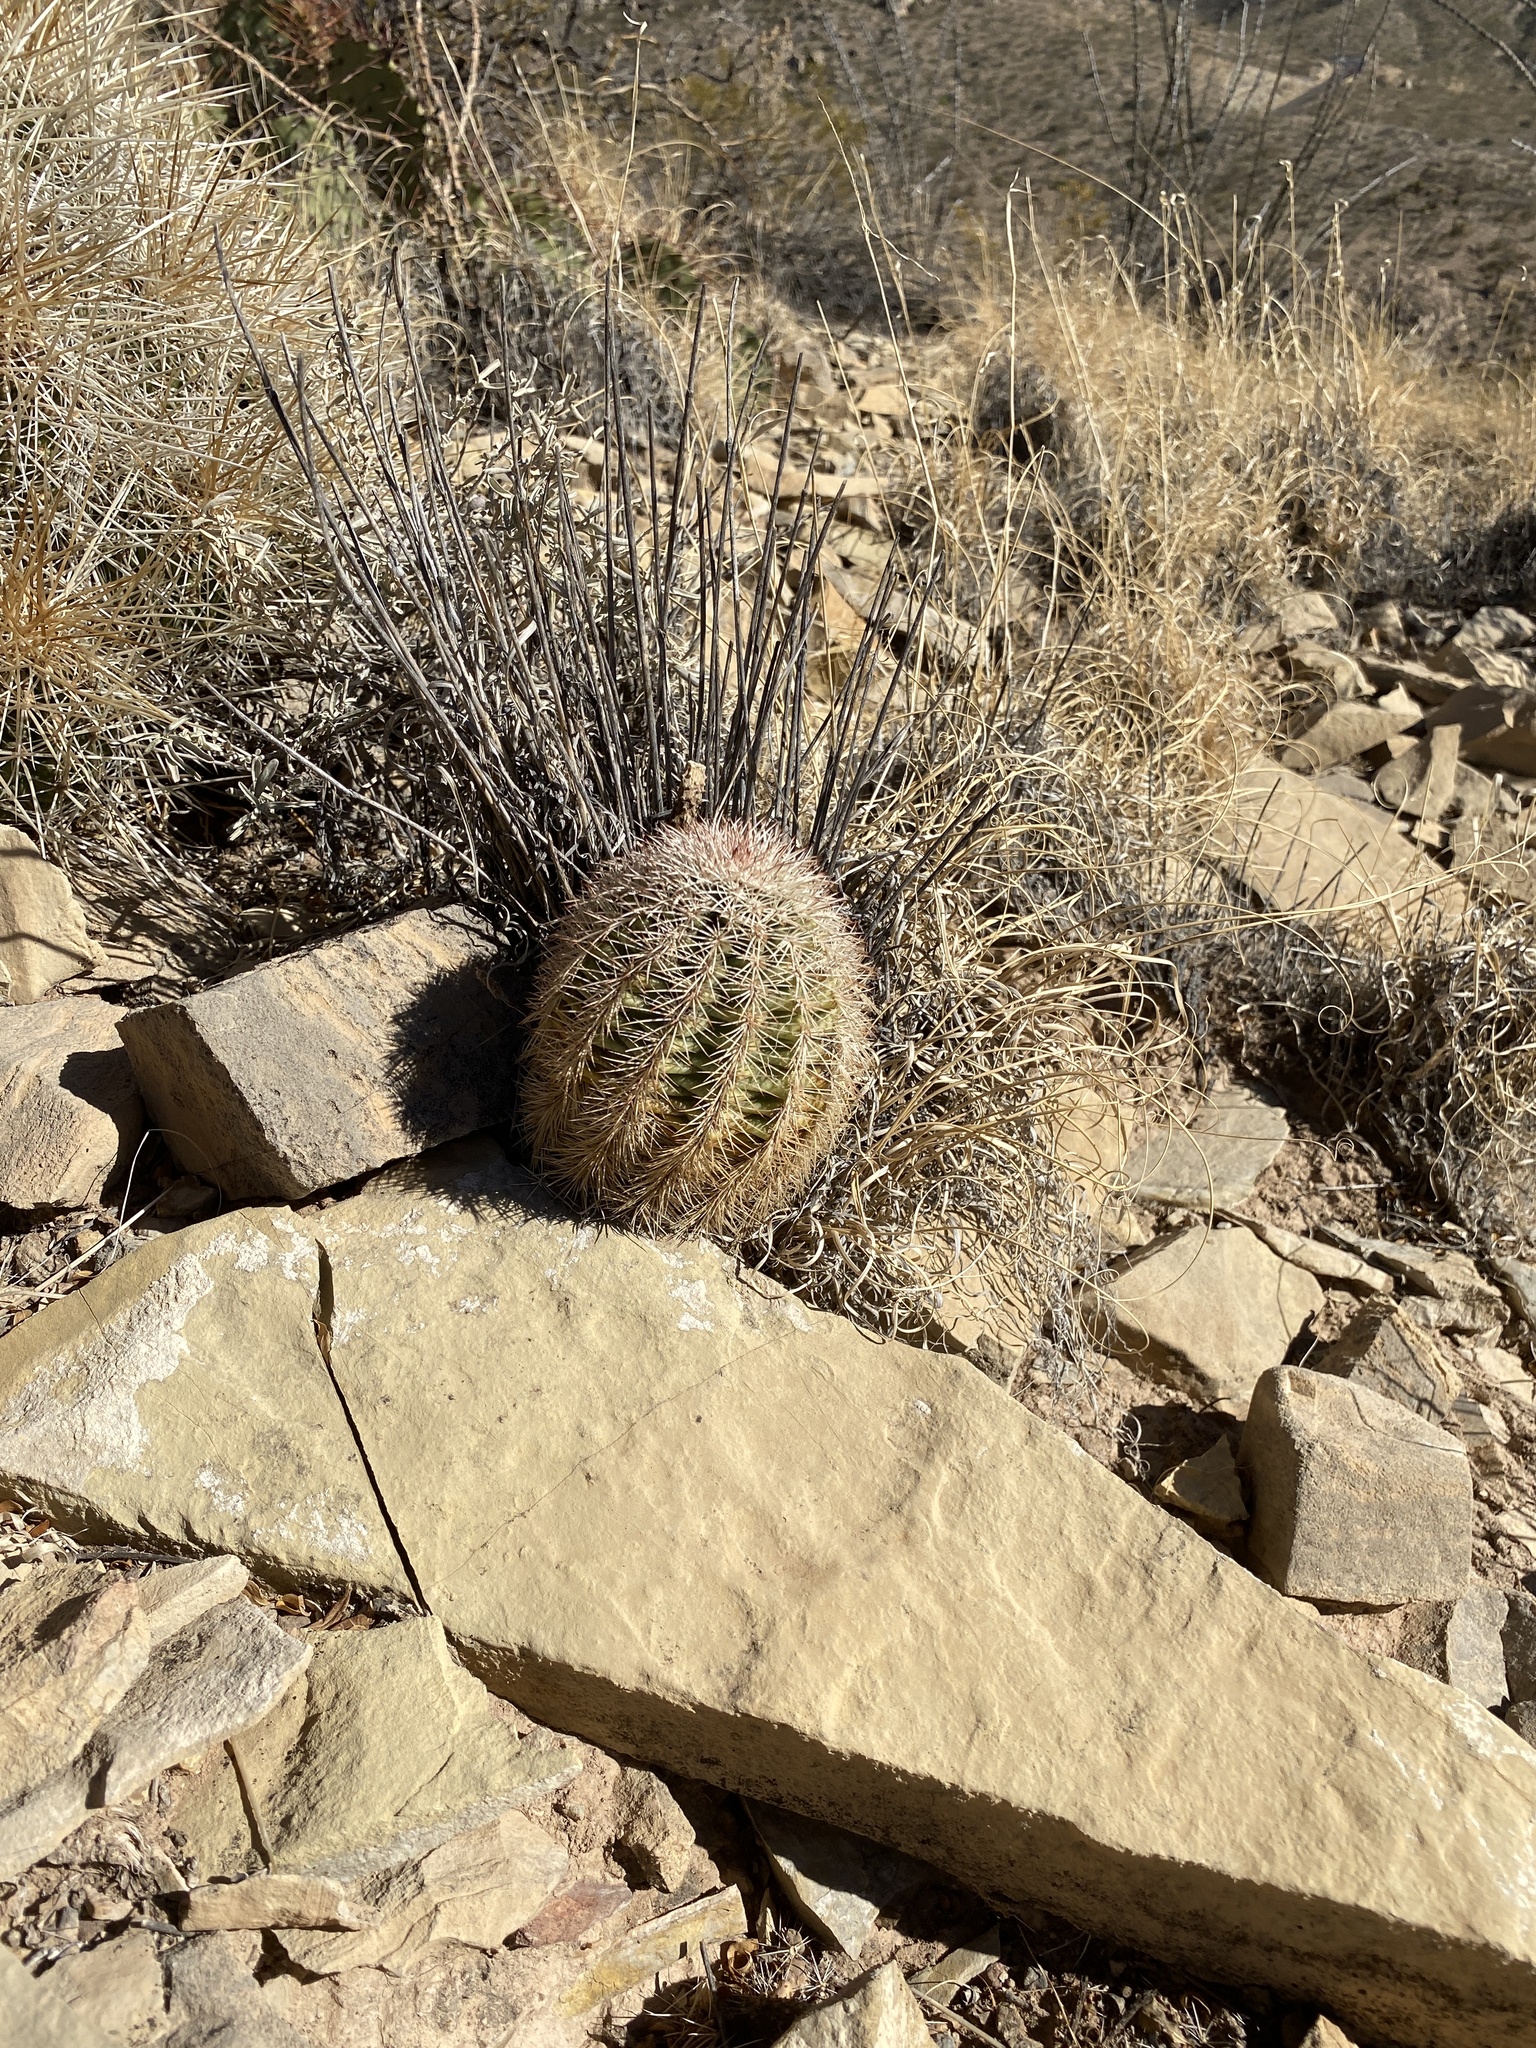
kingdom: Plantae
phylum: Tracheophyta
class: Magnoliopsida
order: Caryophyllales
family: Cactaceae
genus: Echinocereus
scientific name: Echinocereus dasyacanthus
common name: Spiny hedgehog cactus
